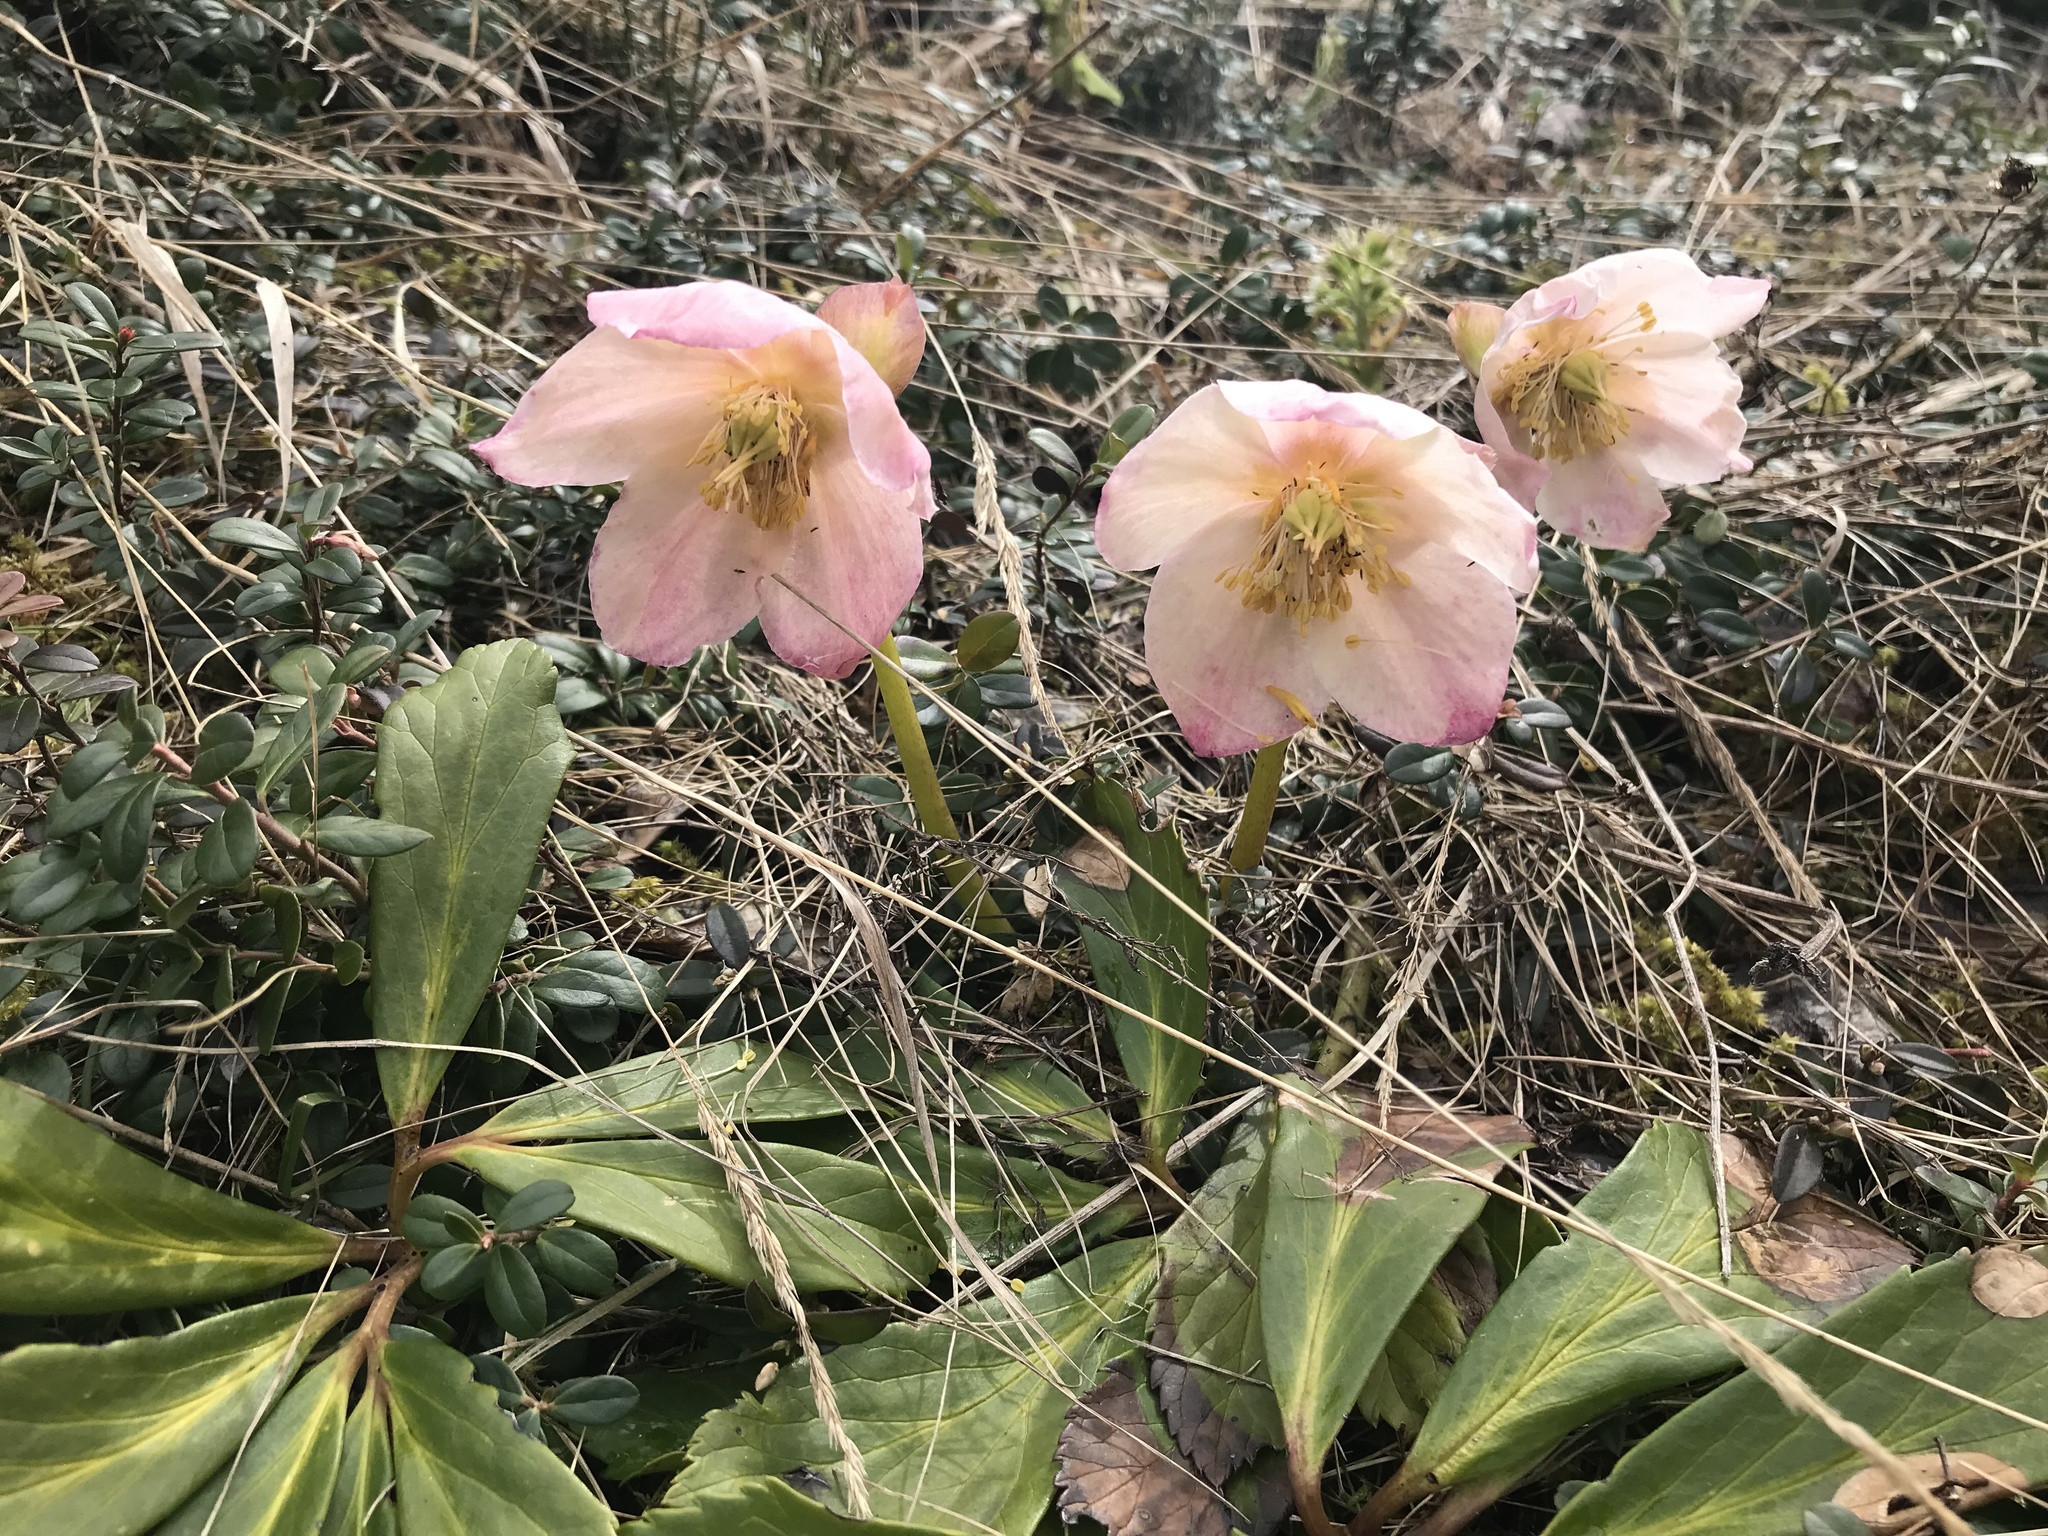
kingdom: Plantae
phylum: Tracheophyta
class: Magnoliopsida
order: Ranunculales
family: Ranunculaceae
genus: Helleborus
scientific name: Helleborus niger
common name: Black hellebore
